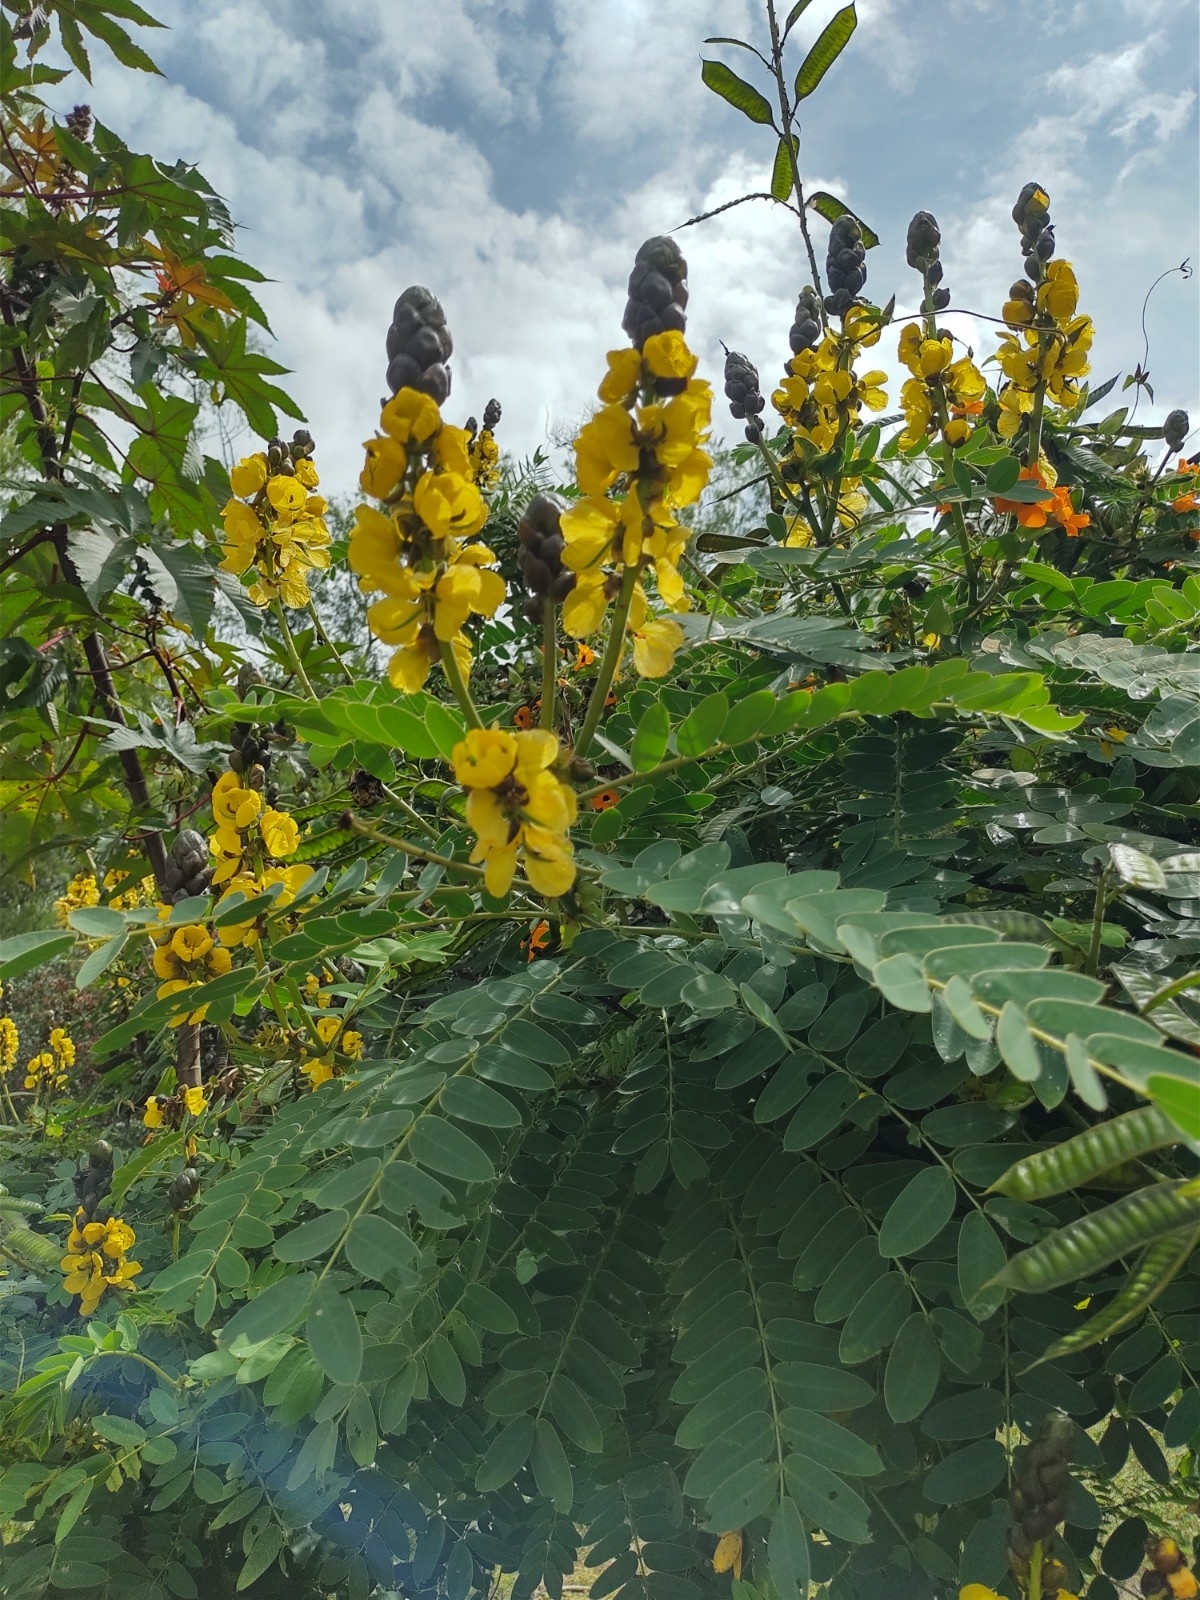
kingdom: Plantae
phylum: Tracheophyta
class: Magnoliopsida
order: Fabales
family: Fabaceae
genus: Senna
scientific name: Senna didymobotrya
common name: African senna
